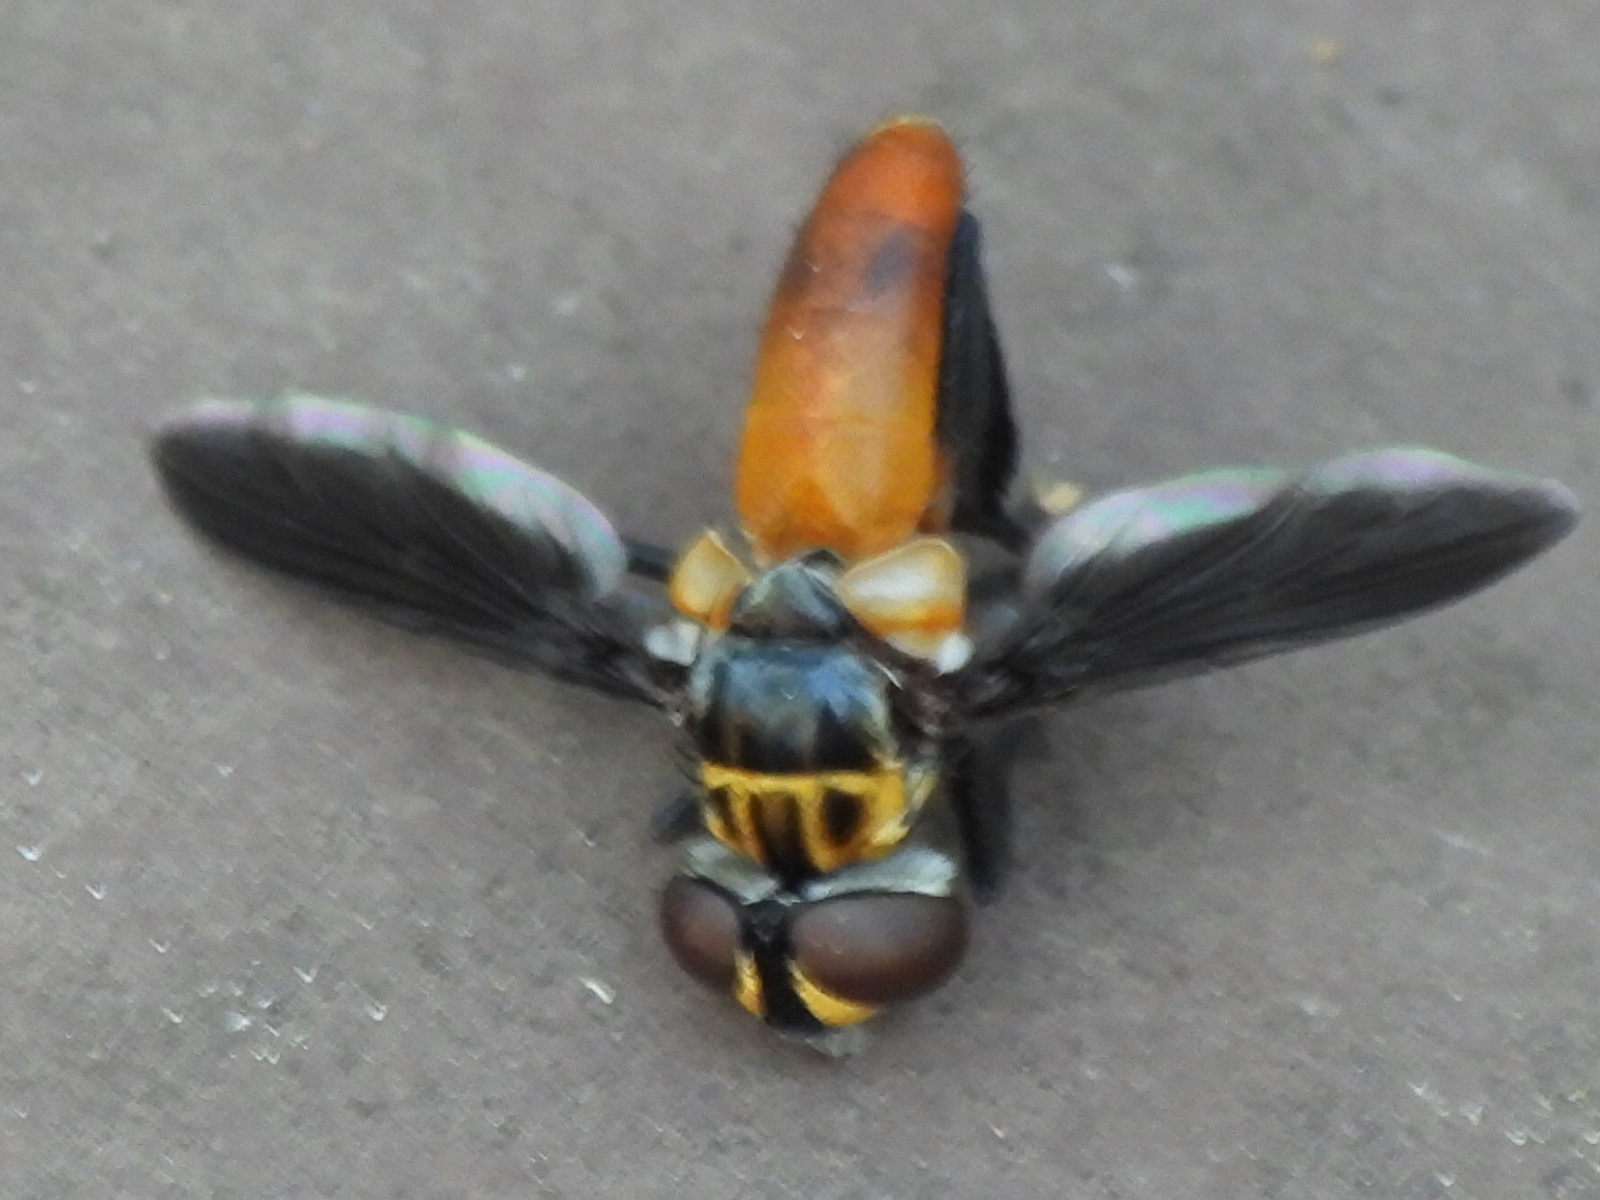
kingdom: Animalia
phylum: Arthropoda
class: Insecta
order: Diptera
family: Tachinidae
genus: Trichopoda
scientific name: Trichopoda pennipes
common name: Tachinid fly
